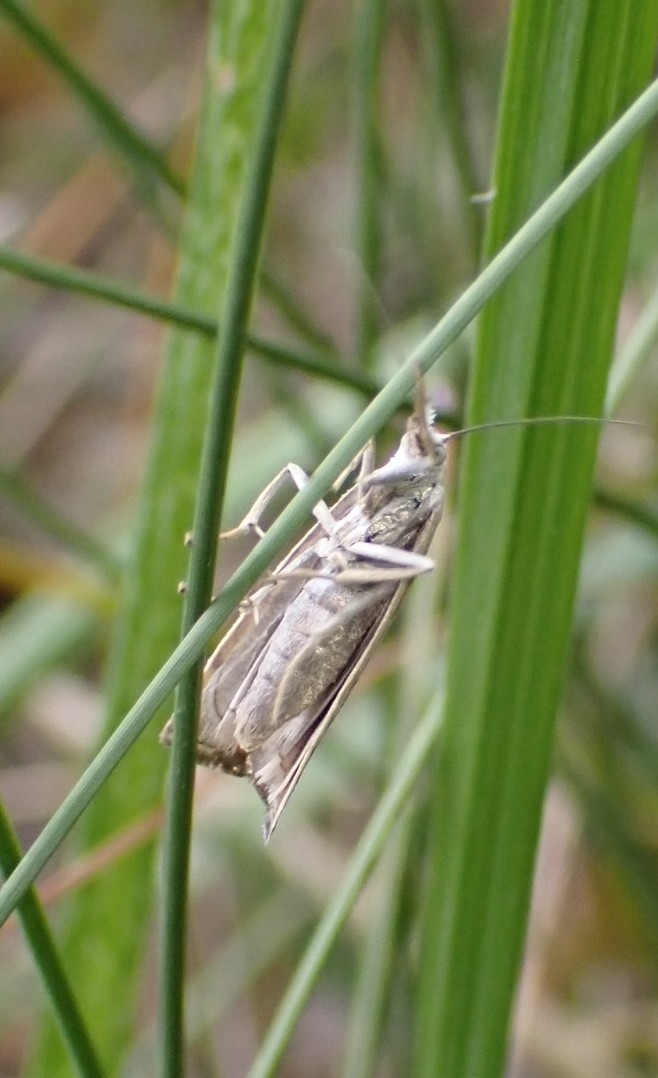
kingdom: Animalia
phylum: Arthropoda
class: Insecta
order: Lepidoptera
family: Crambidae
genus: Chrysoteuchia
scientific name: Chrysoteuchia culmella
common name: Garden grass-veneer
